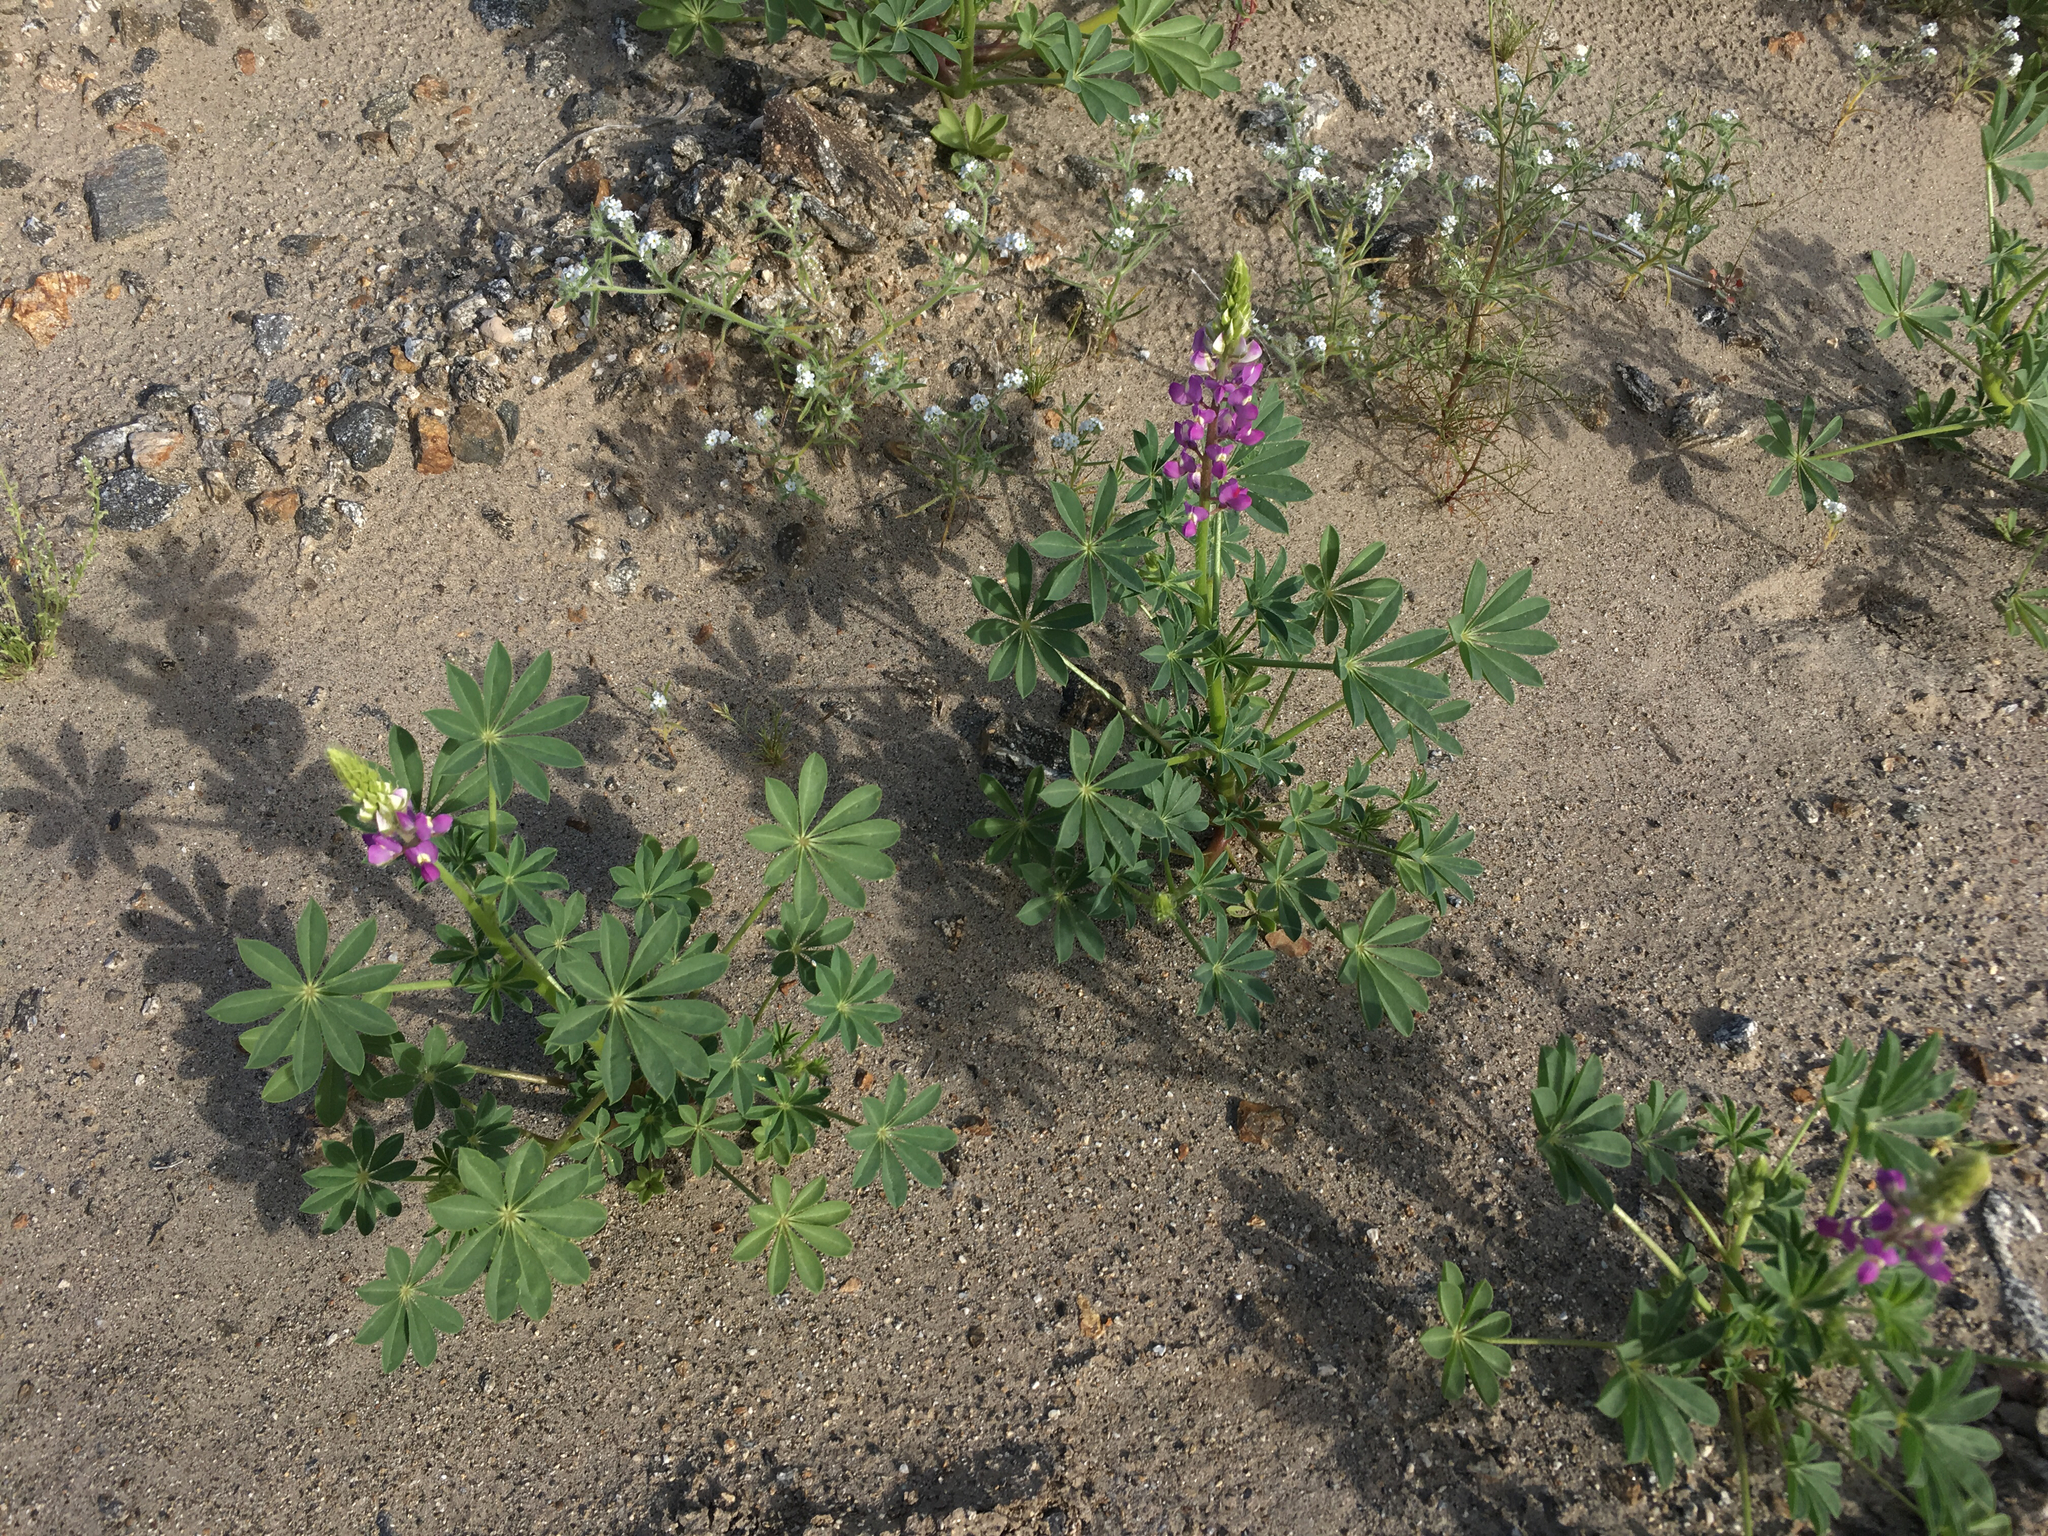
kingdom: Plantae
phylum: Tracheophyta
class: Magnoliopsida
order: Fabales
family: Fabaceae
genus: Lupinus
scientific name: Lupinus arizonicus
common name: Arizona lupine
